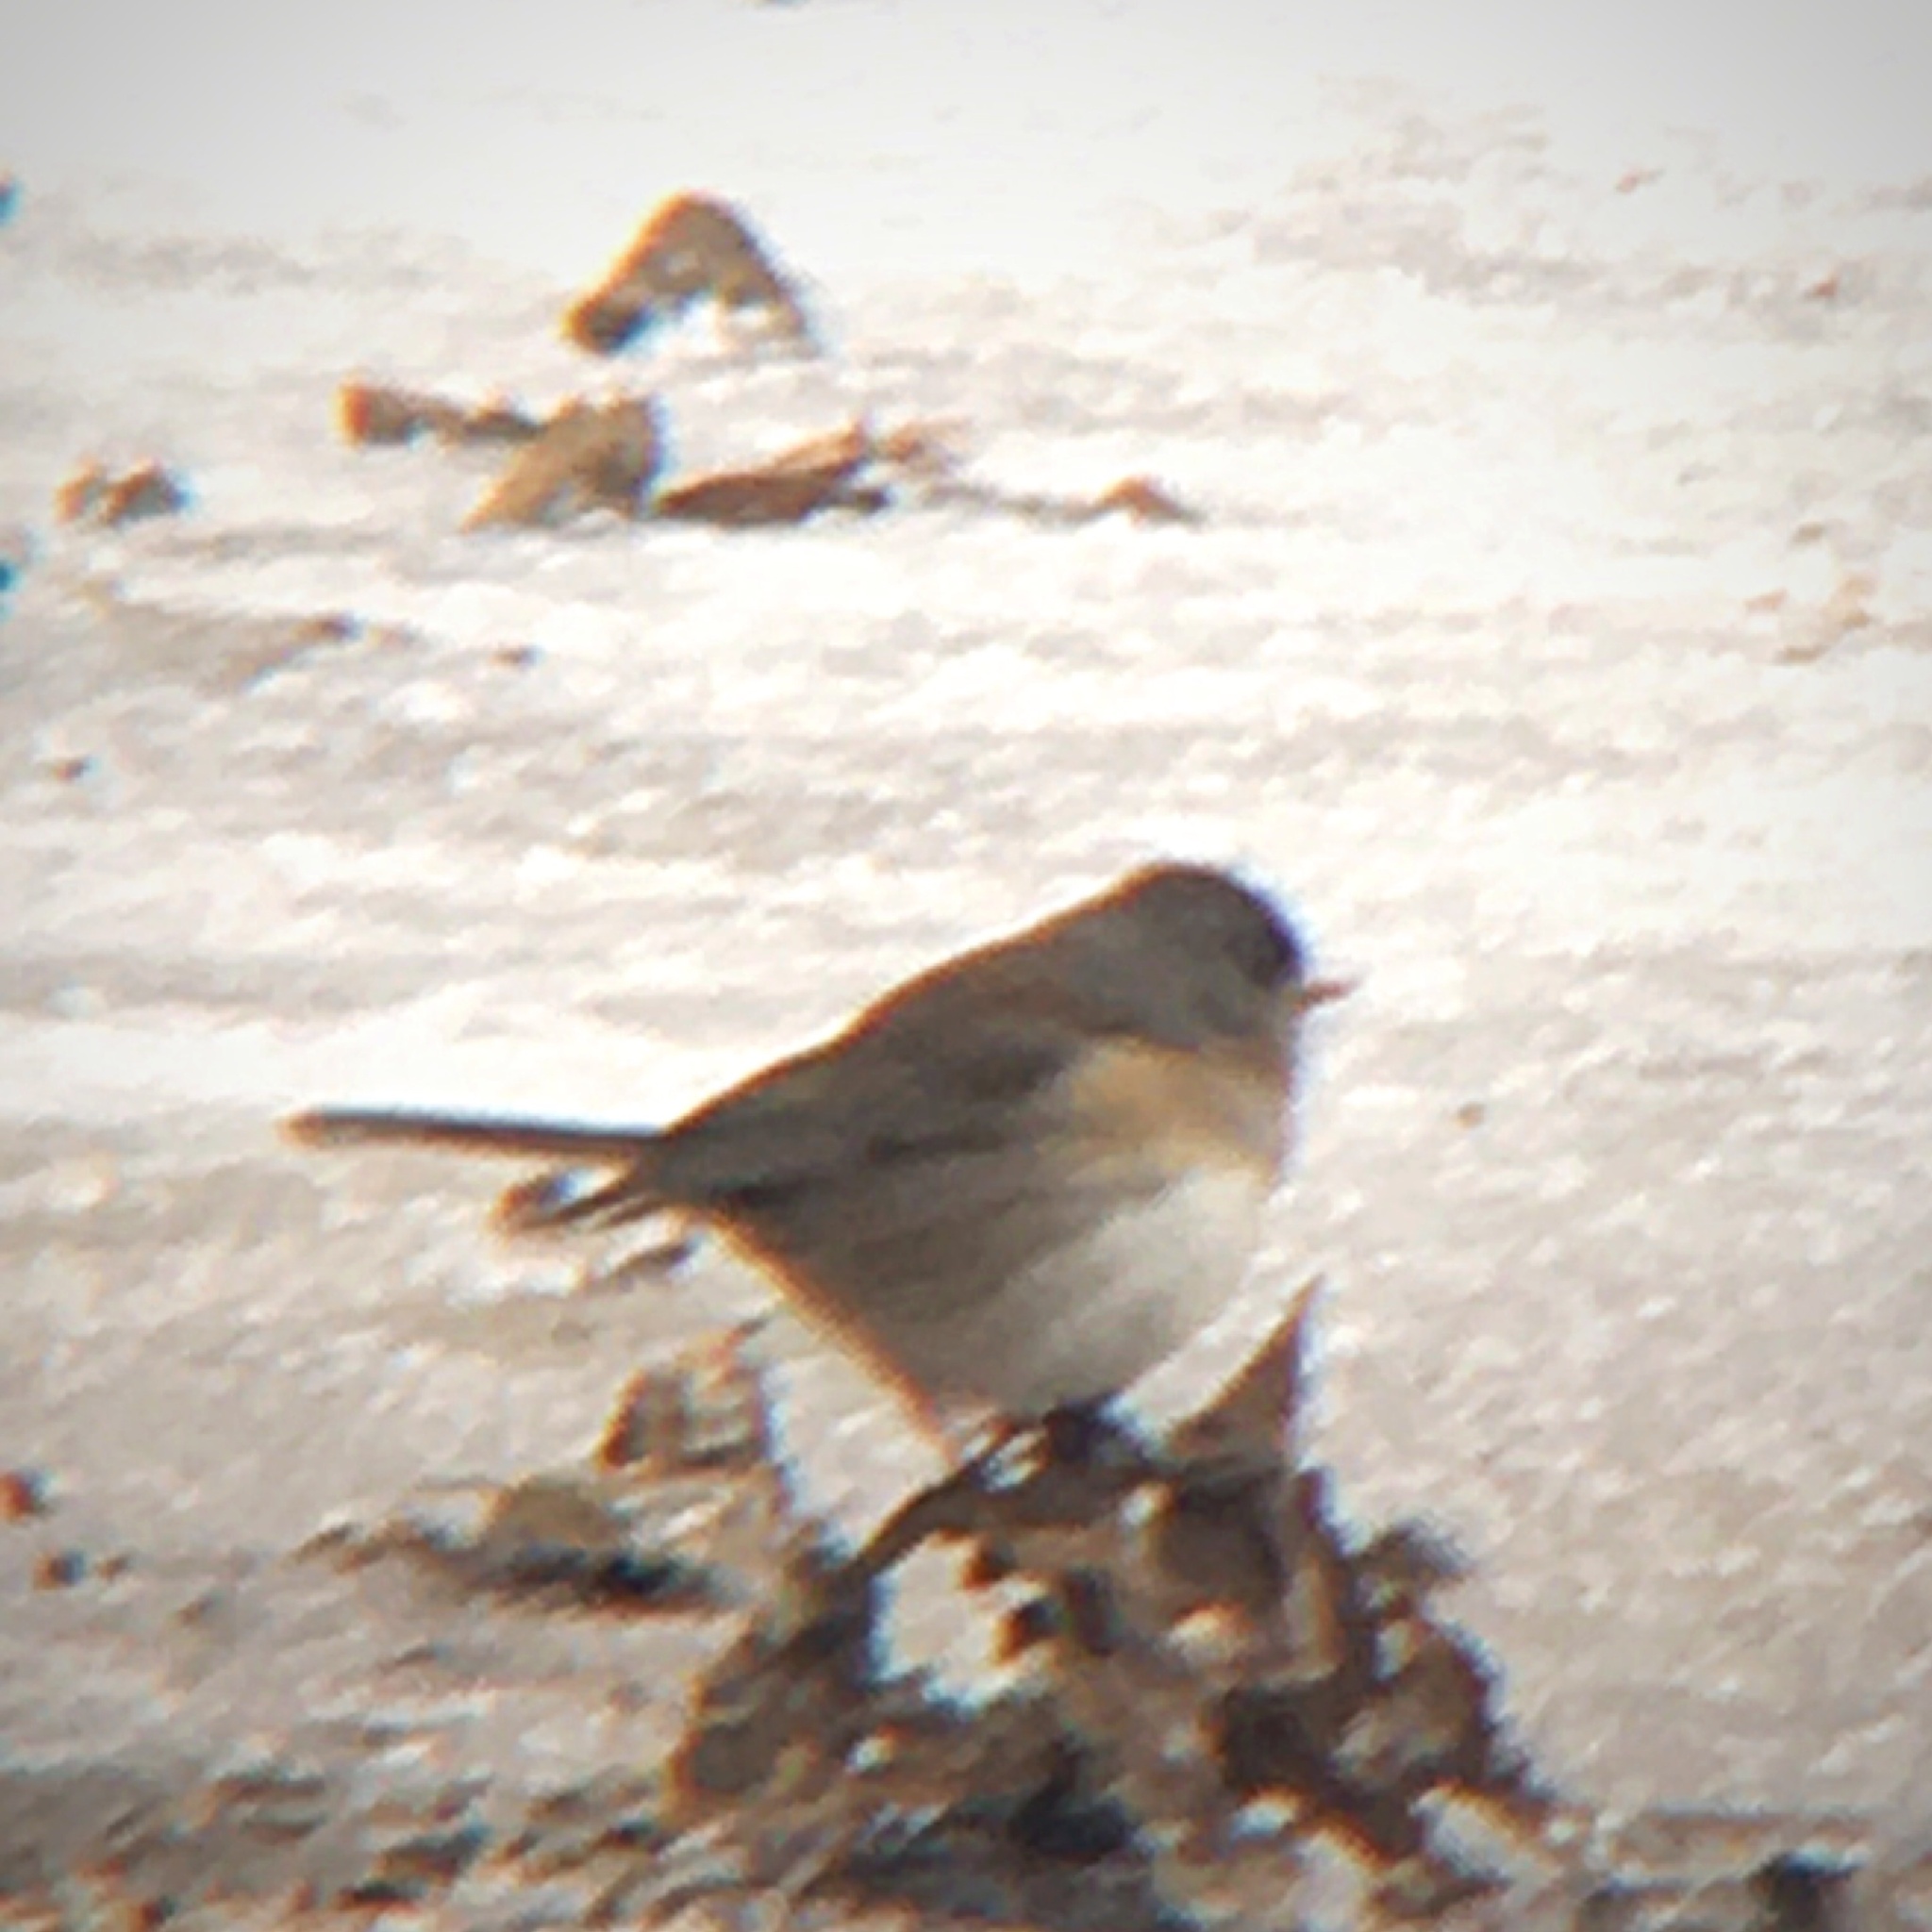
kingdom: Animalia
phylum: Chordata
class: Aves
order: Passeriformes
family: Passerellidae
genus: Junco
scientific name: Junco hyemalis
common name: Dark-eyed junco
